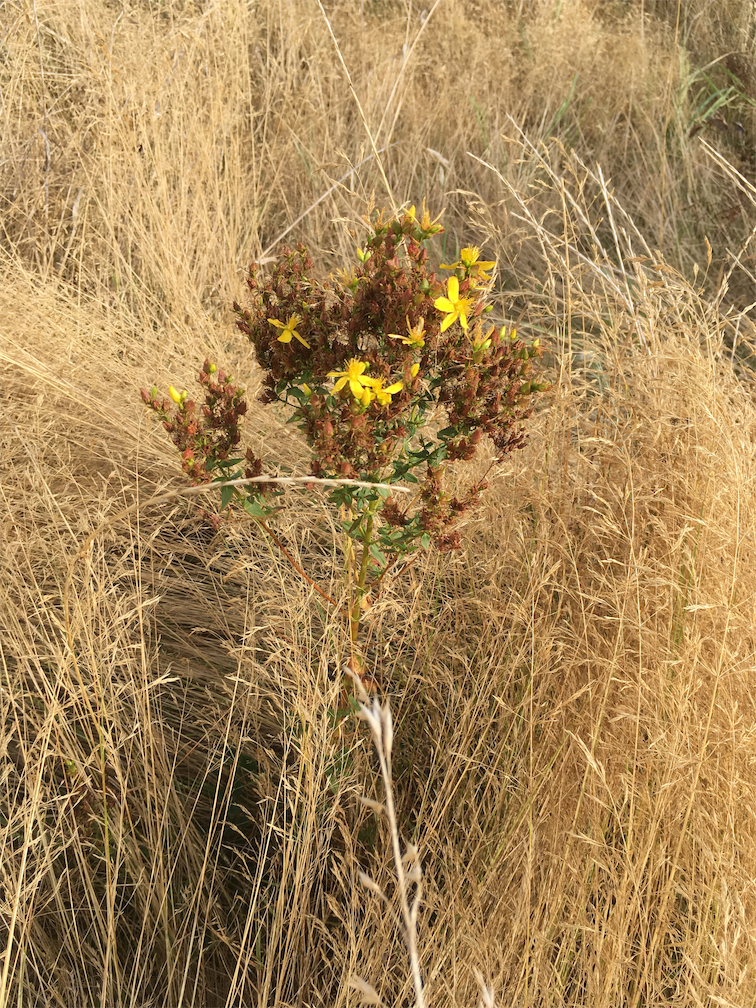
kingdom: Plantae
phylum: Tracheophyta
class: Magnoliopsida
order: Malpighiales
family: Hypericaceae
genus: Hypericum
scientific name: Hypericum perforatum
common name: Common st. johnswort
